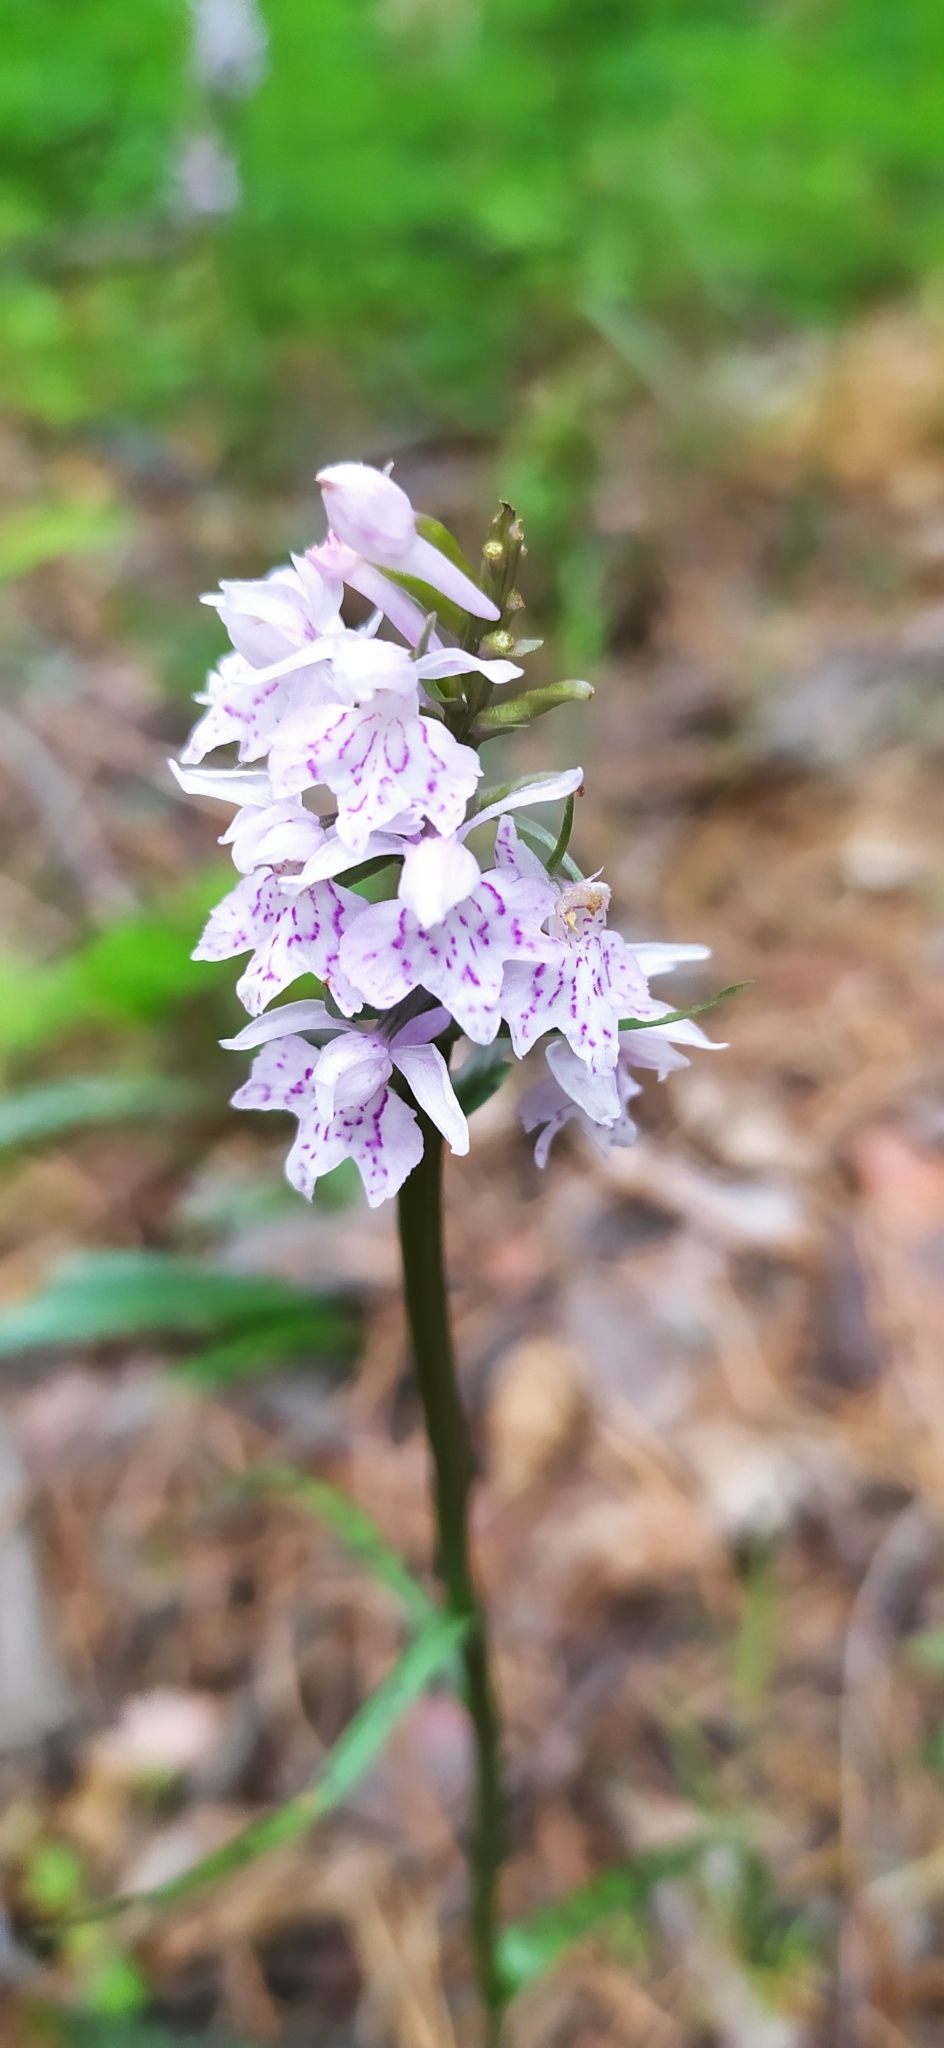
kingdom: Plantae
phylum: Tracheophyta
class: Liliopsida
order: Asparagales
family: Orchidaceae
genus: Dactylorhiza
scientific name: Dactylorhiza maculata
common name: Heath spotted-orchid
